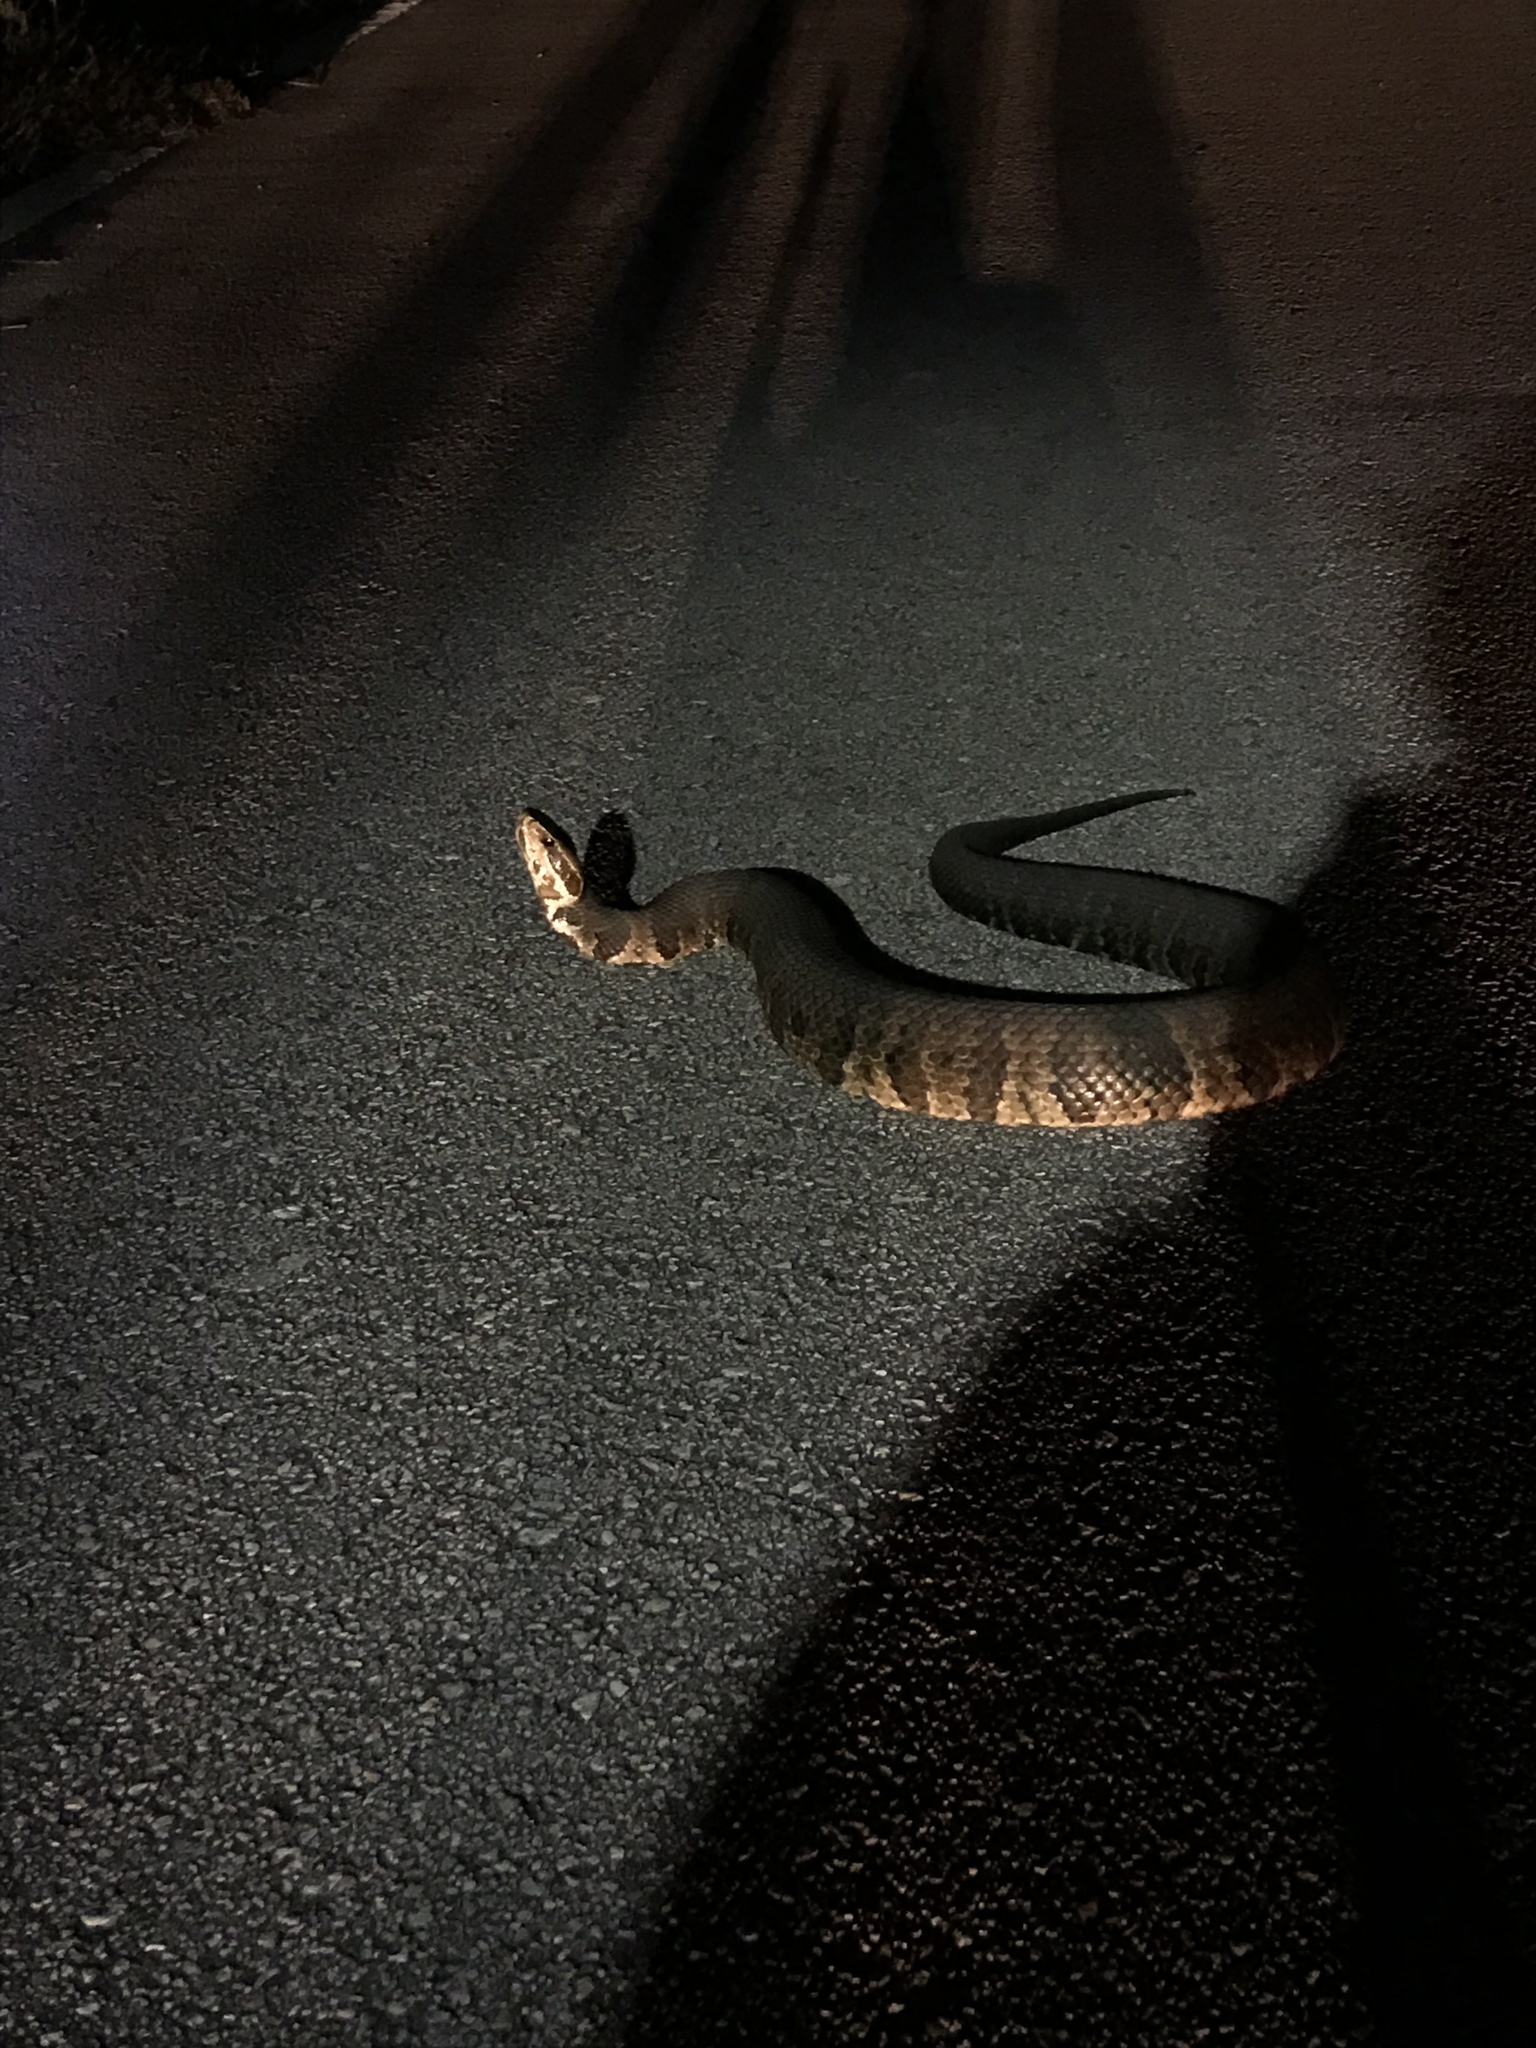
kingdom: Animalia
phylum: Chordata
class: Squamata
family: Viperidae
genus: Agkistrodon
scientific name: Agkistrodon conanti
